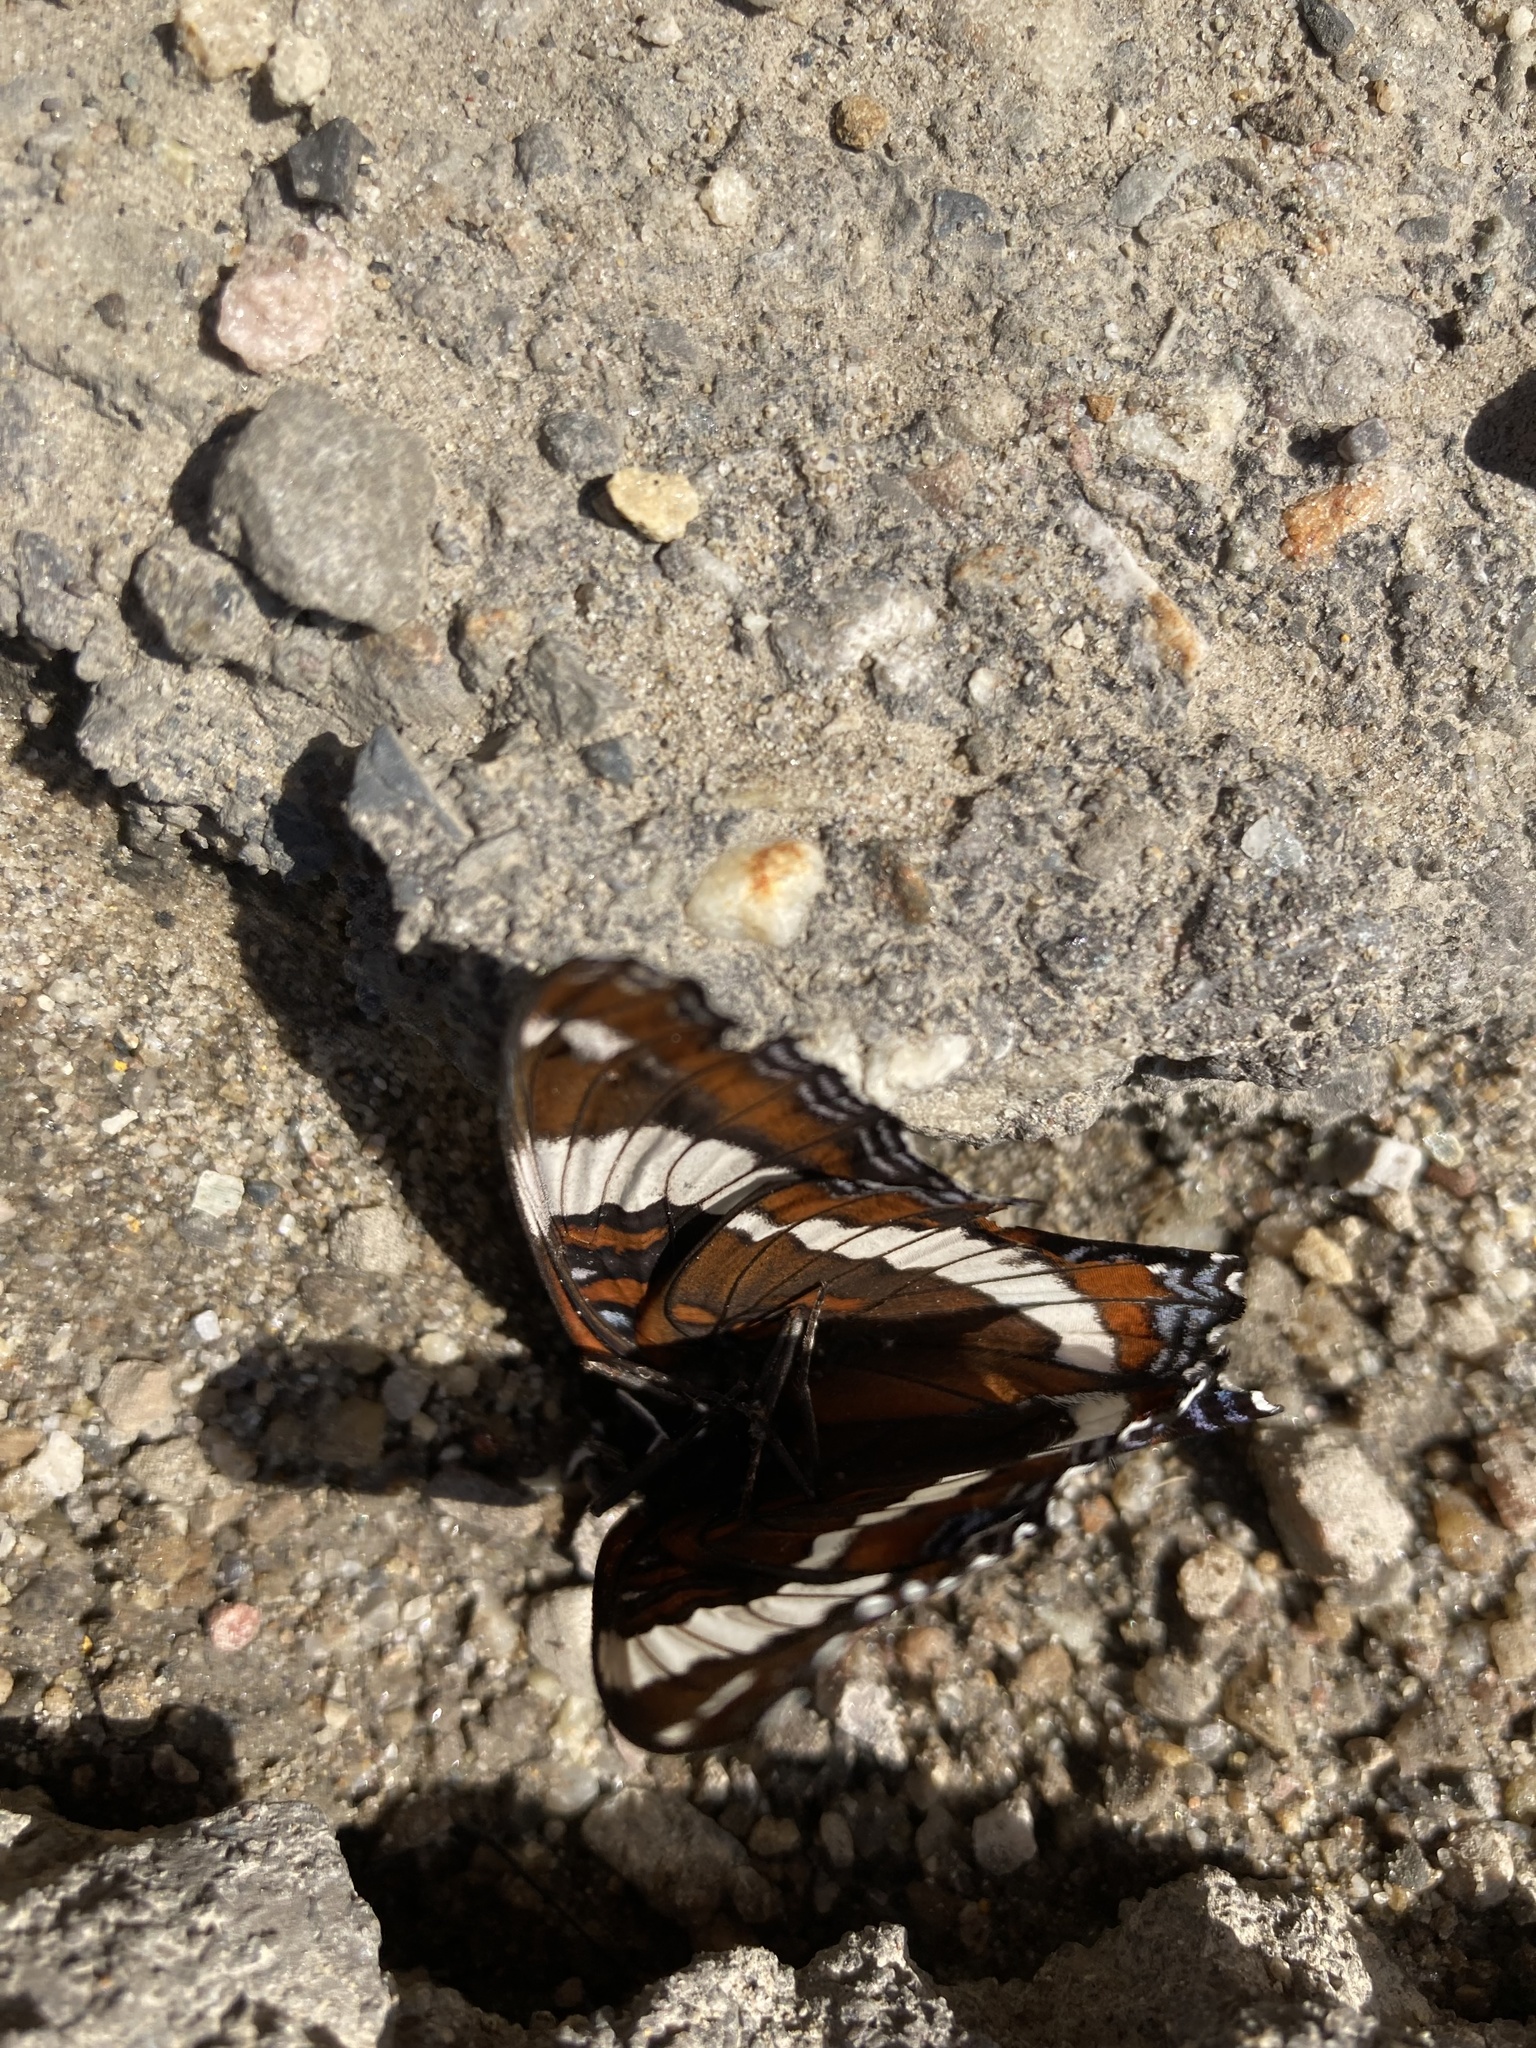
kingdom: Animalia
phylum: Arthropoda
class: Insecta
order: Lepidoptera
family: Nymphalidae
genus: Limenitis
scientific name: Limenitis arthemis
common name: Red-spotted admiral
